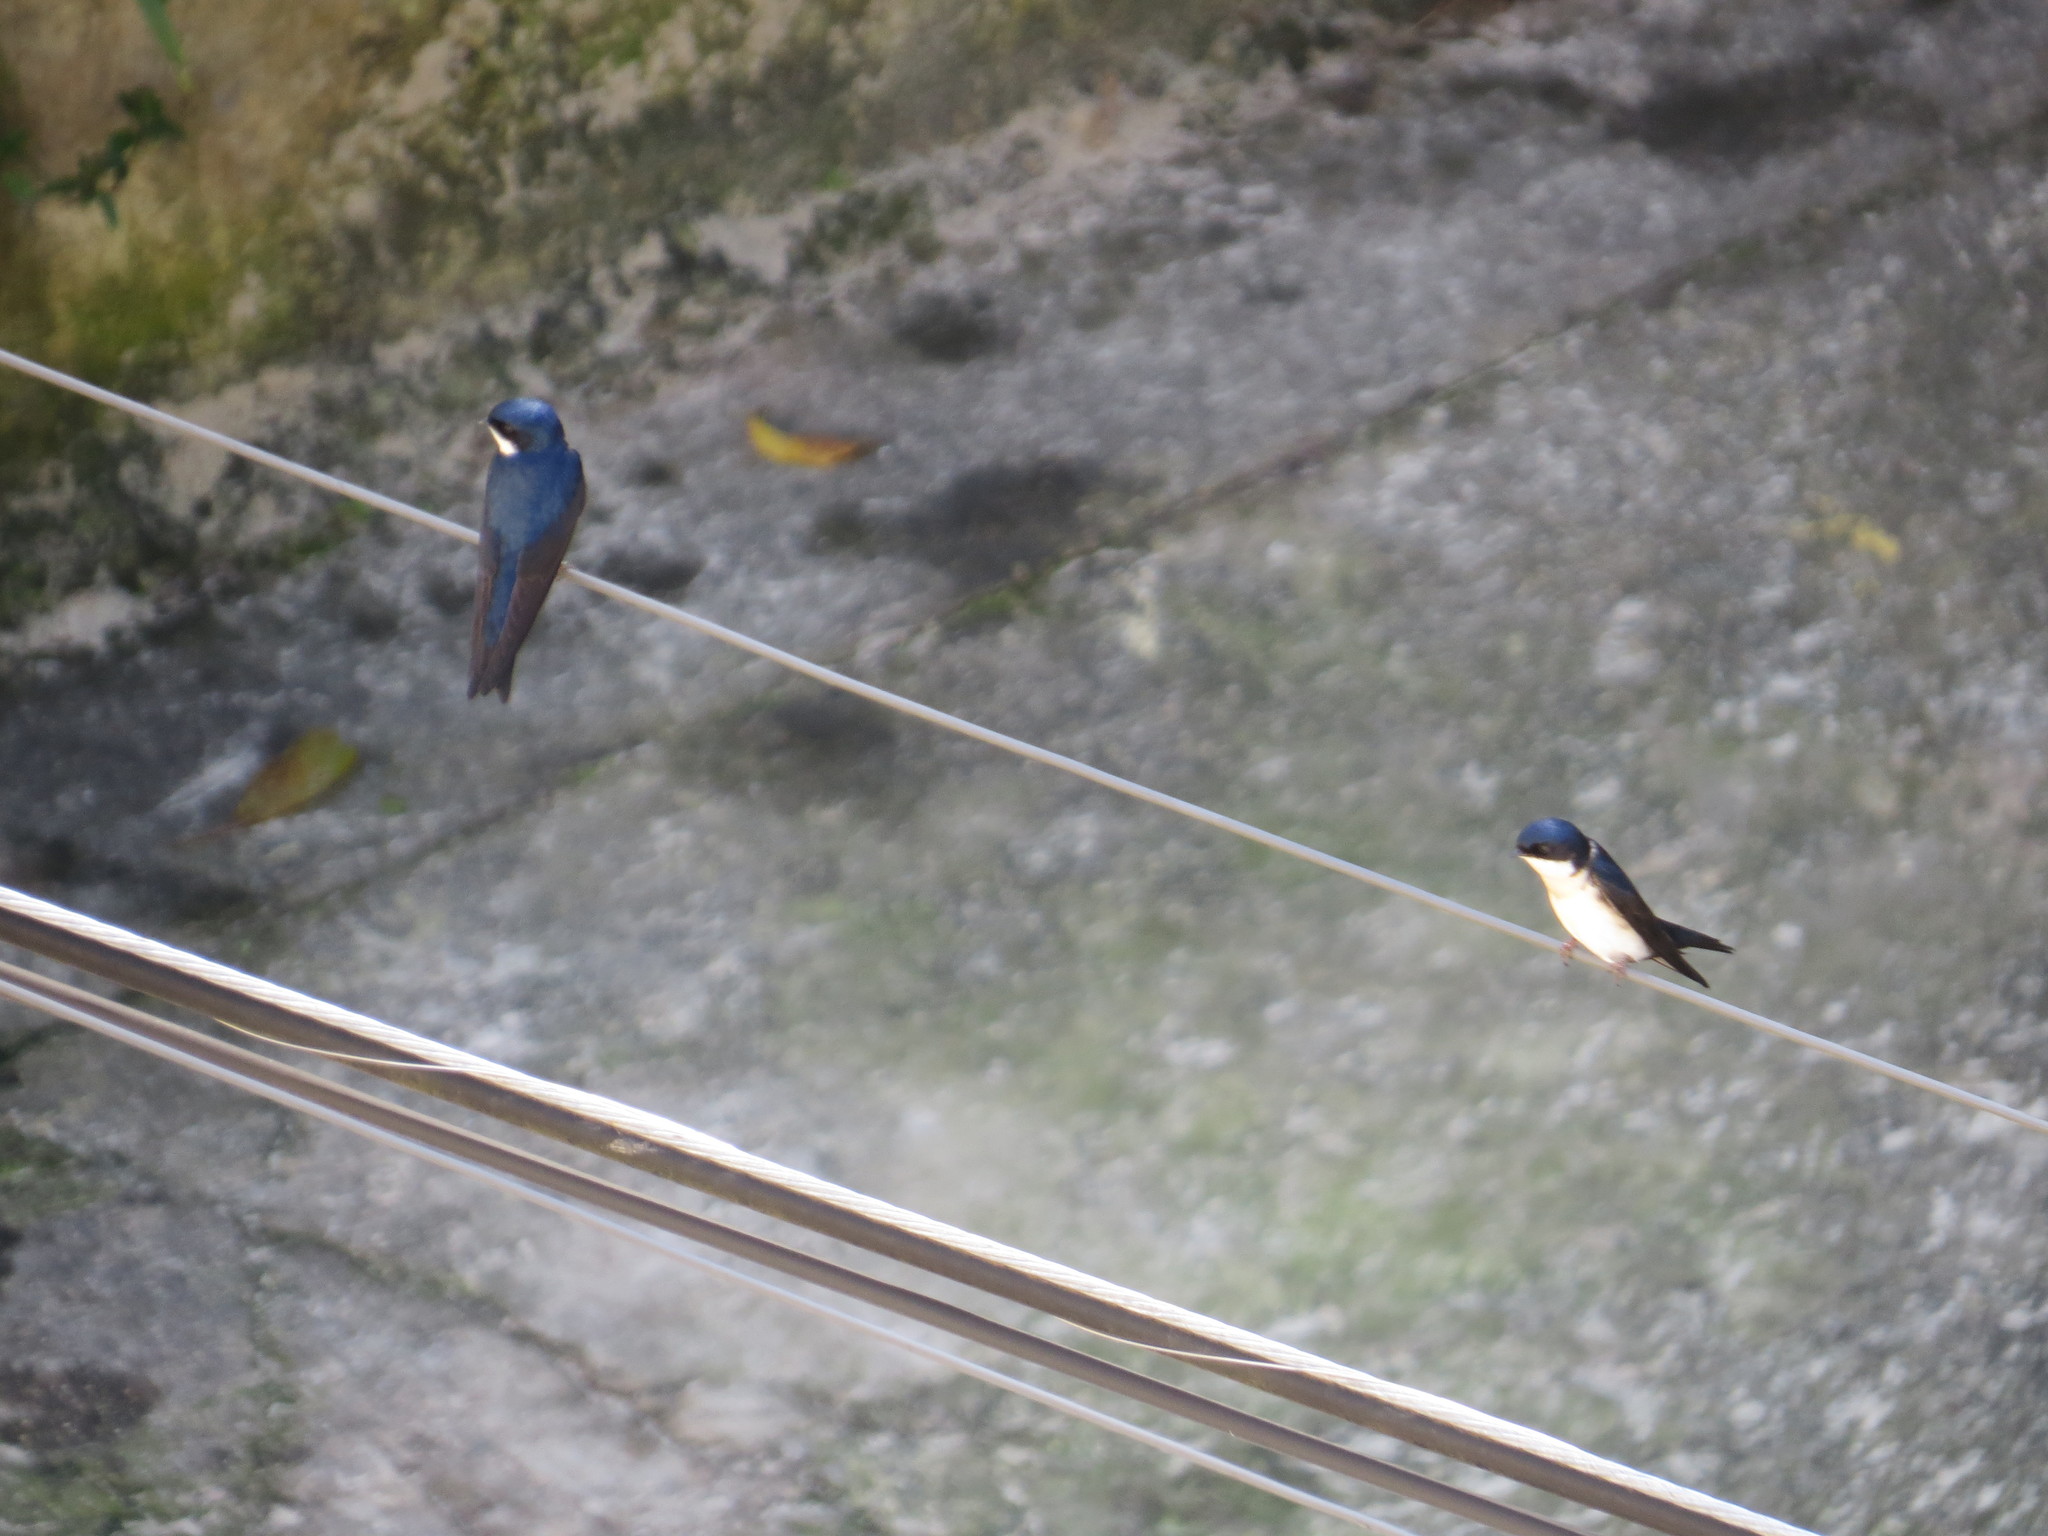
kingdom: Animalia
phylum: Chordata
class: Aves
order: Passeriformes
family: Hirundinidae
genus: Notiochelidon
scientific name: Notiochelidon cyanoleuca
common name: Blue-and-white swallow
